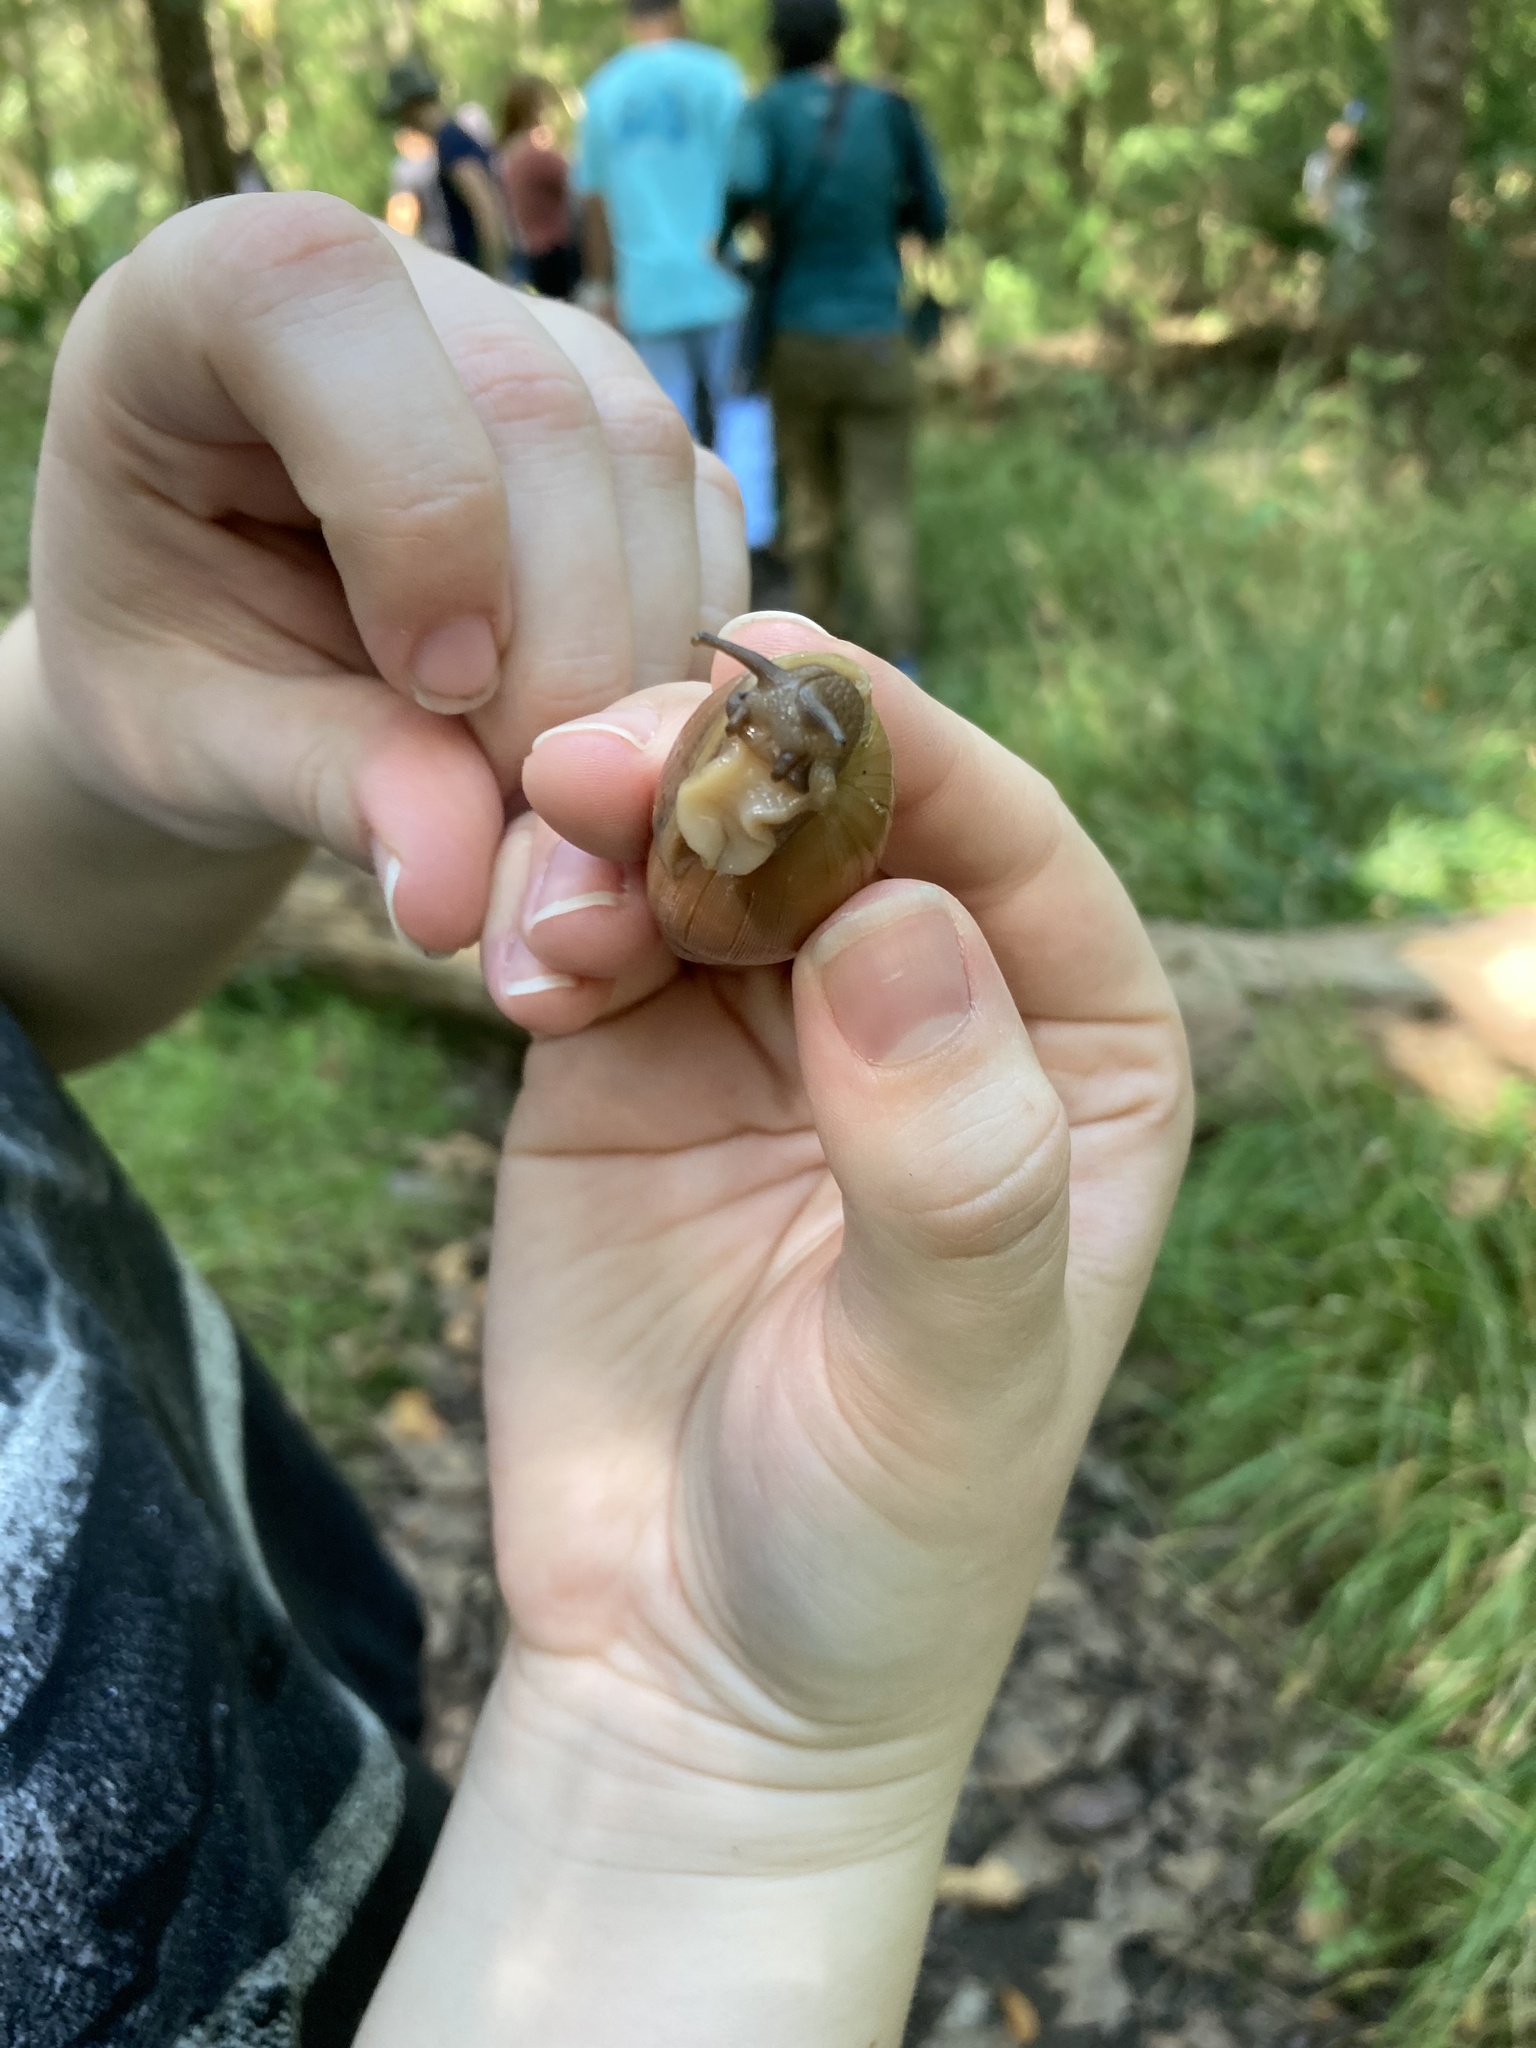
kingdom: Animalia
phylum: Mollusca
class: Gastropoda
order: Stylommatophora
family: Spiraxidae
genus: Euglandina
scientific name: Euglandina rosea
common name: Rosy wolfsnail
